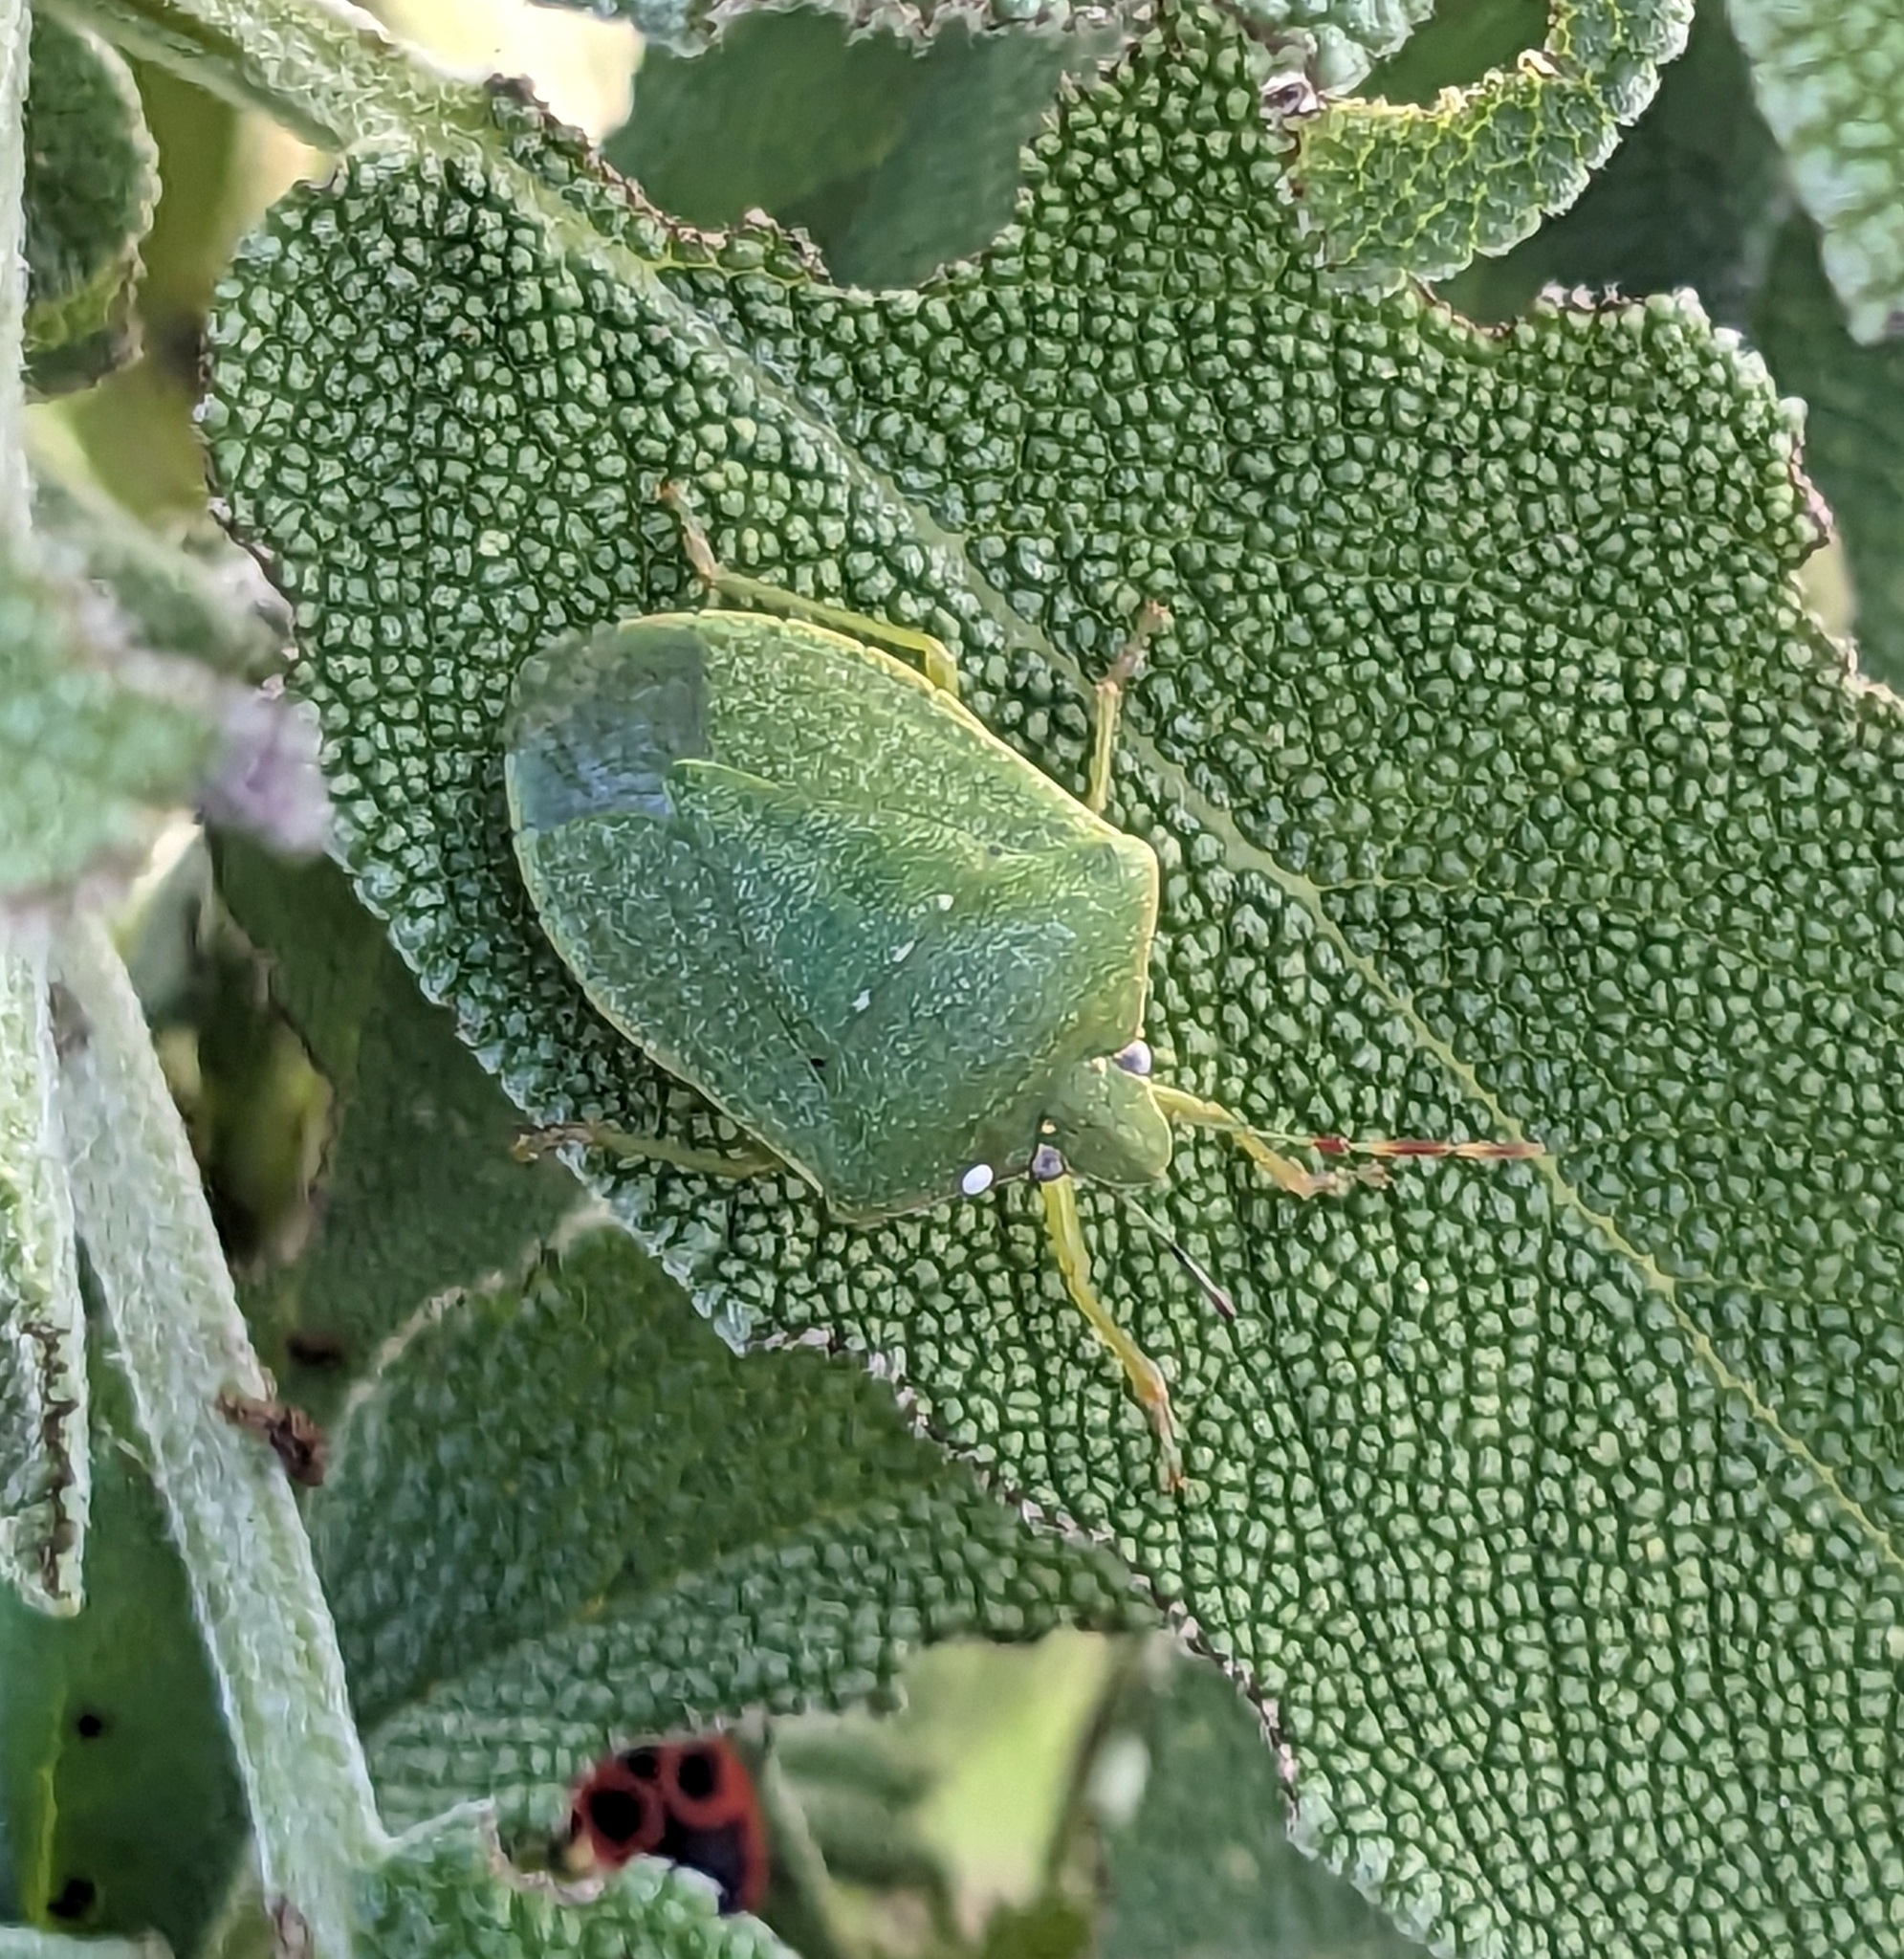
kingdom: Animalia
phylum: Arthropoda
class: Insecta
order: Hemiptera
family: Pentatomidae
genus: Nezara
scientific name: Nezara viridula
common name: Southern green stink bug
